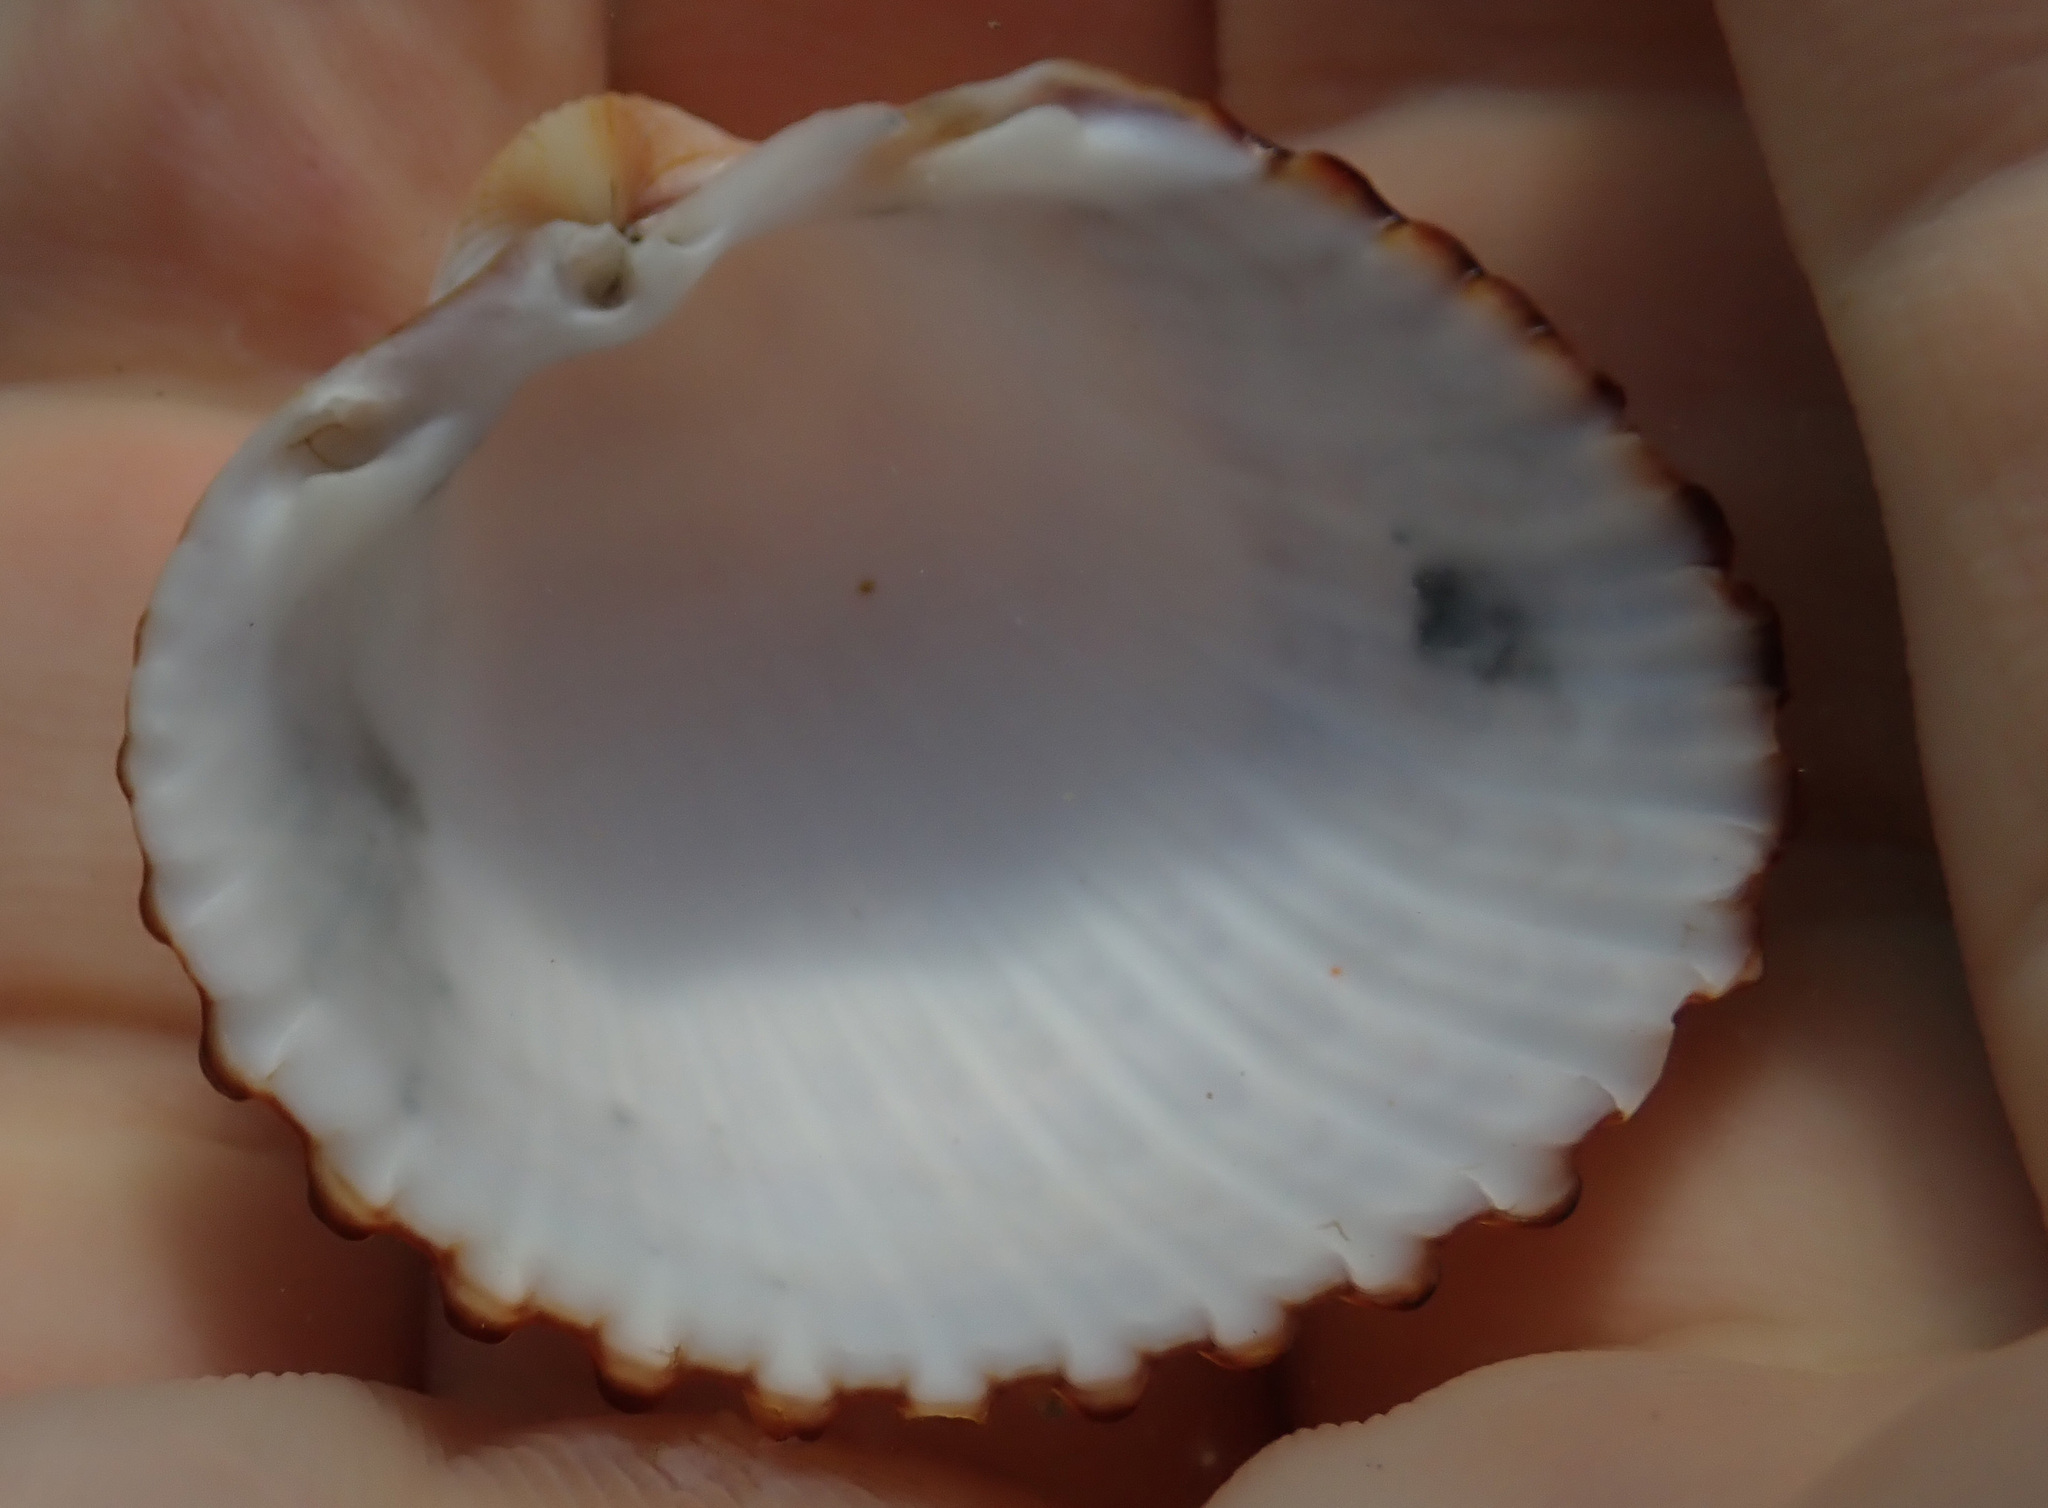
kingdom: Animalia
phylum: Mollusca
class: Bivalvia
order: Cardiida
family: Cardiidae
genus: Acanthocardia
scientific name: Acanthocardia tuberculata
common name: Rough cockle
